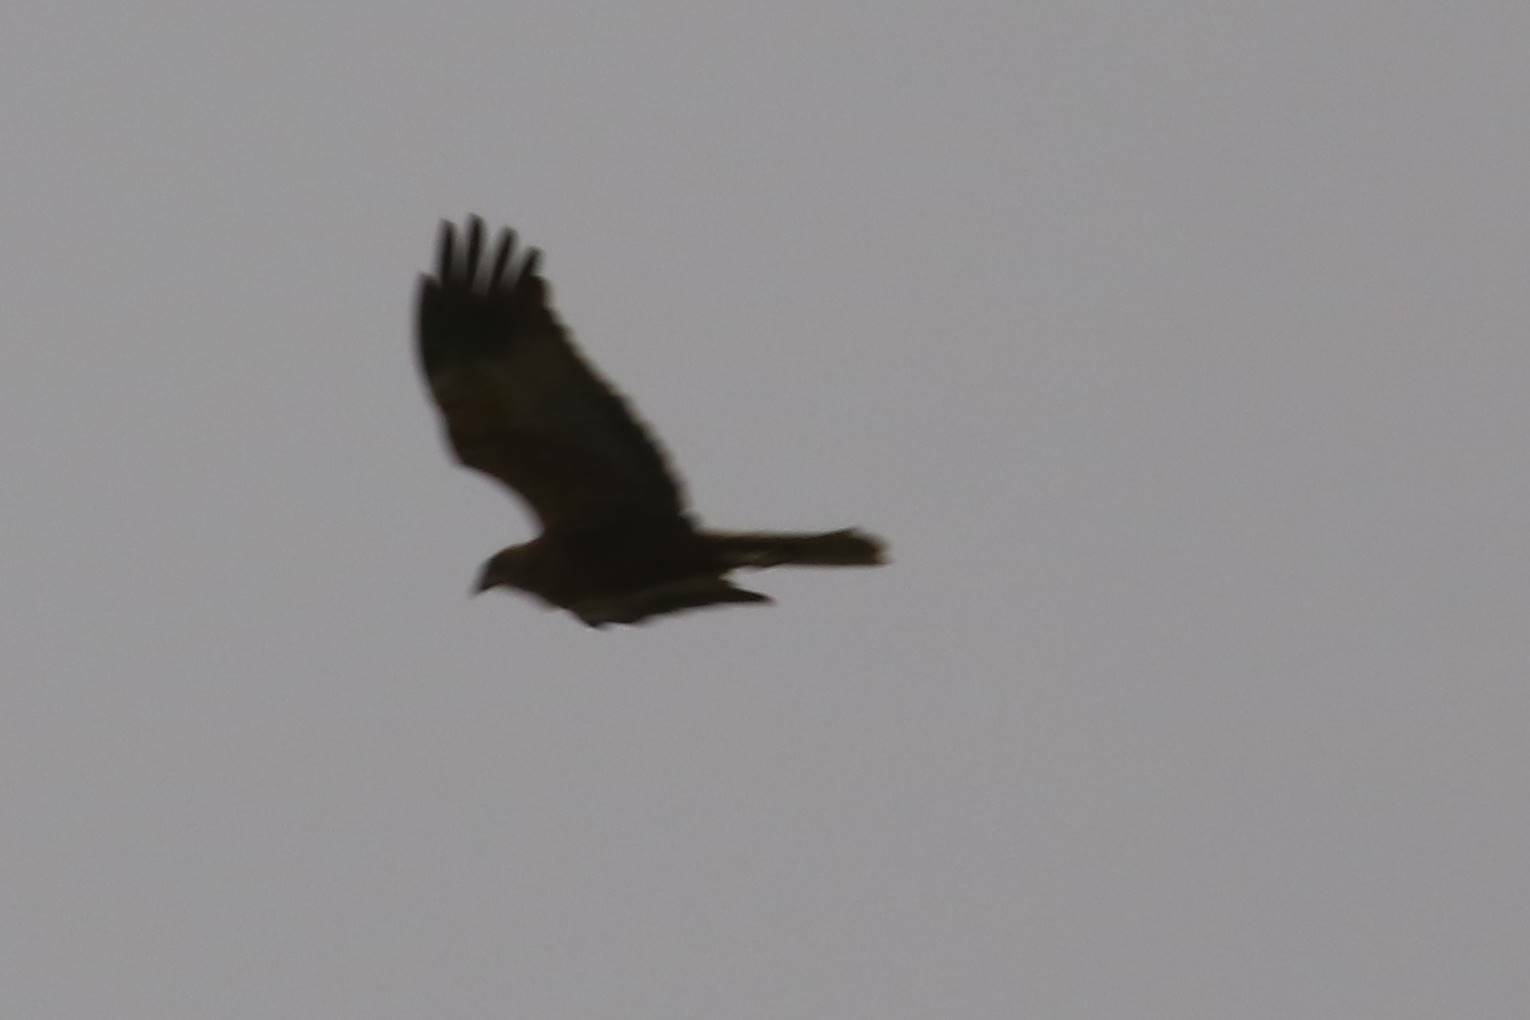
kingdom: Animalia
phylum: Chordata
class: Aves
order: Accipitriformes
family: Accipitridae
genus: Circus
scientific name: Circus aeruginosus
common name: Western marsh harrier
